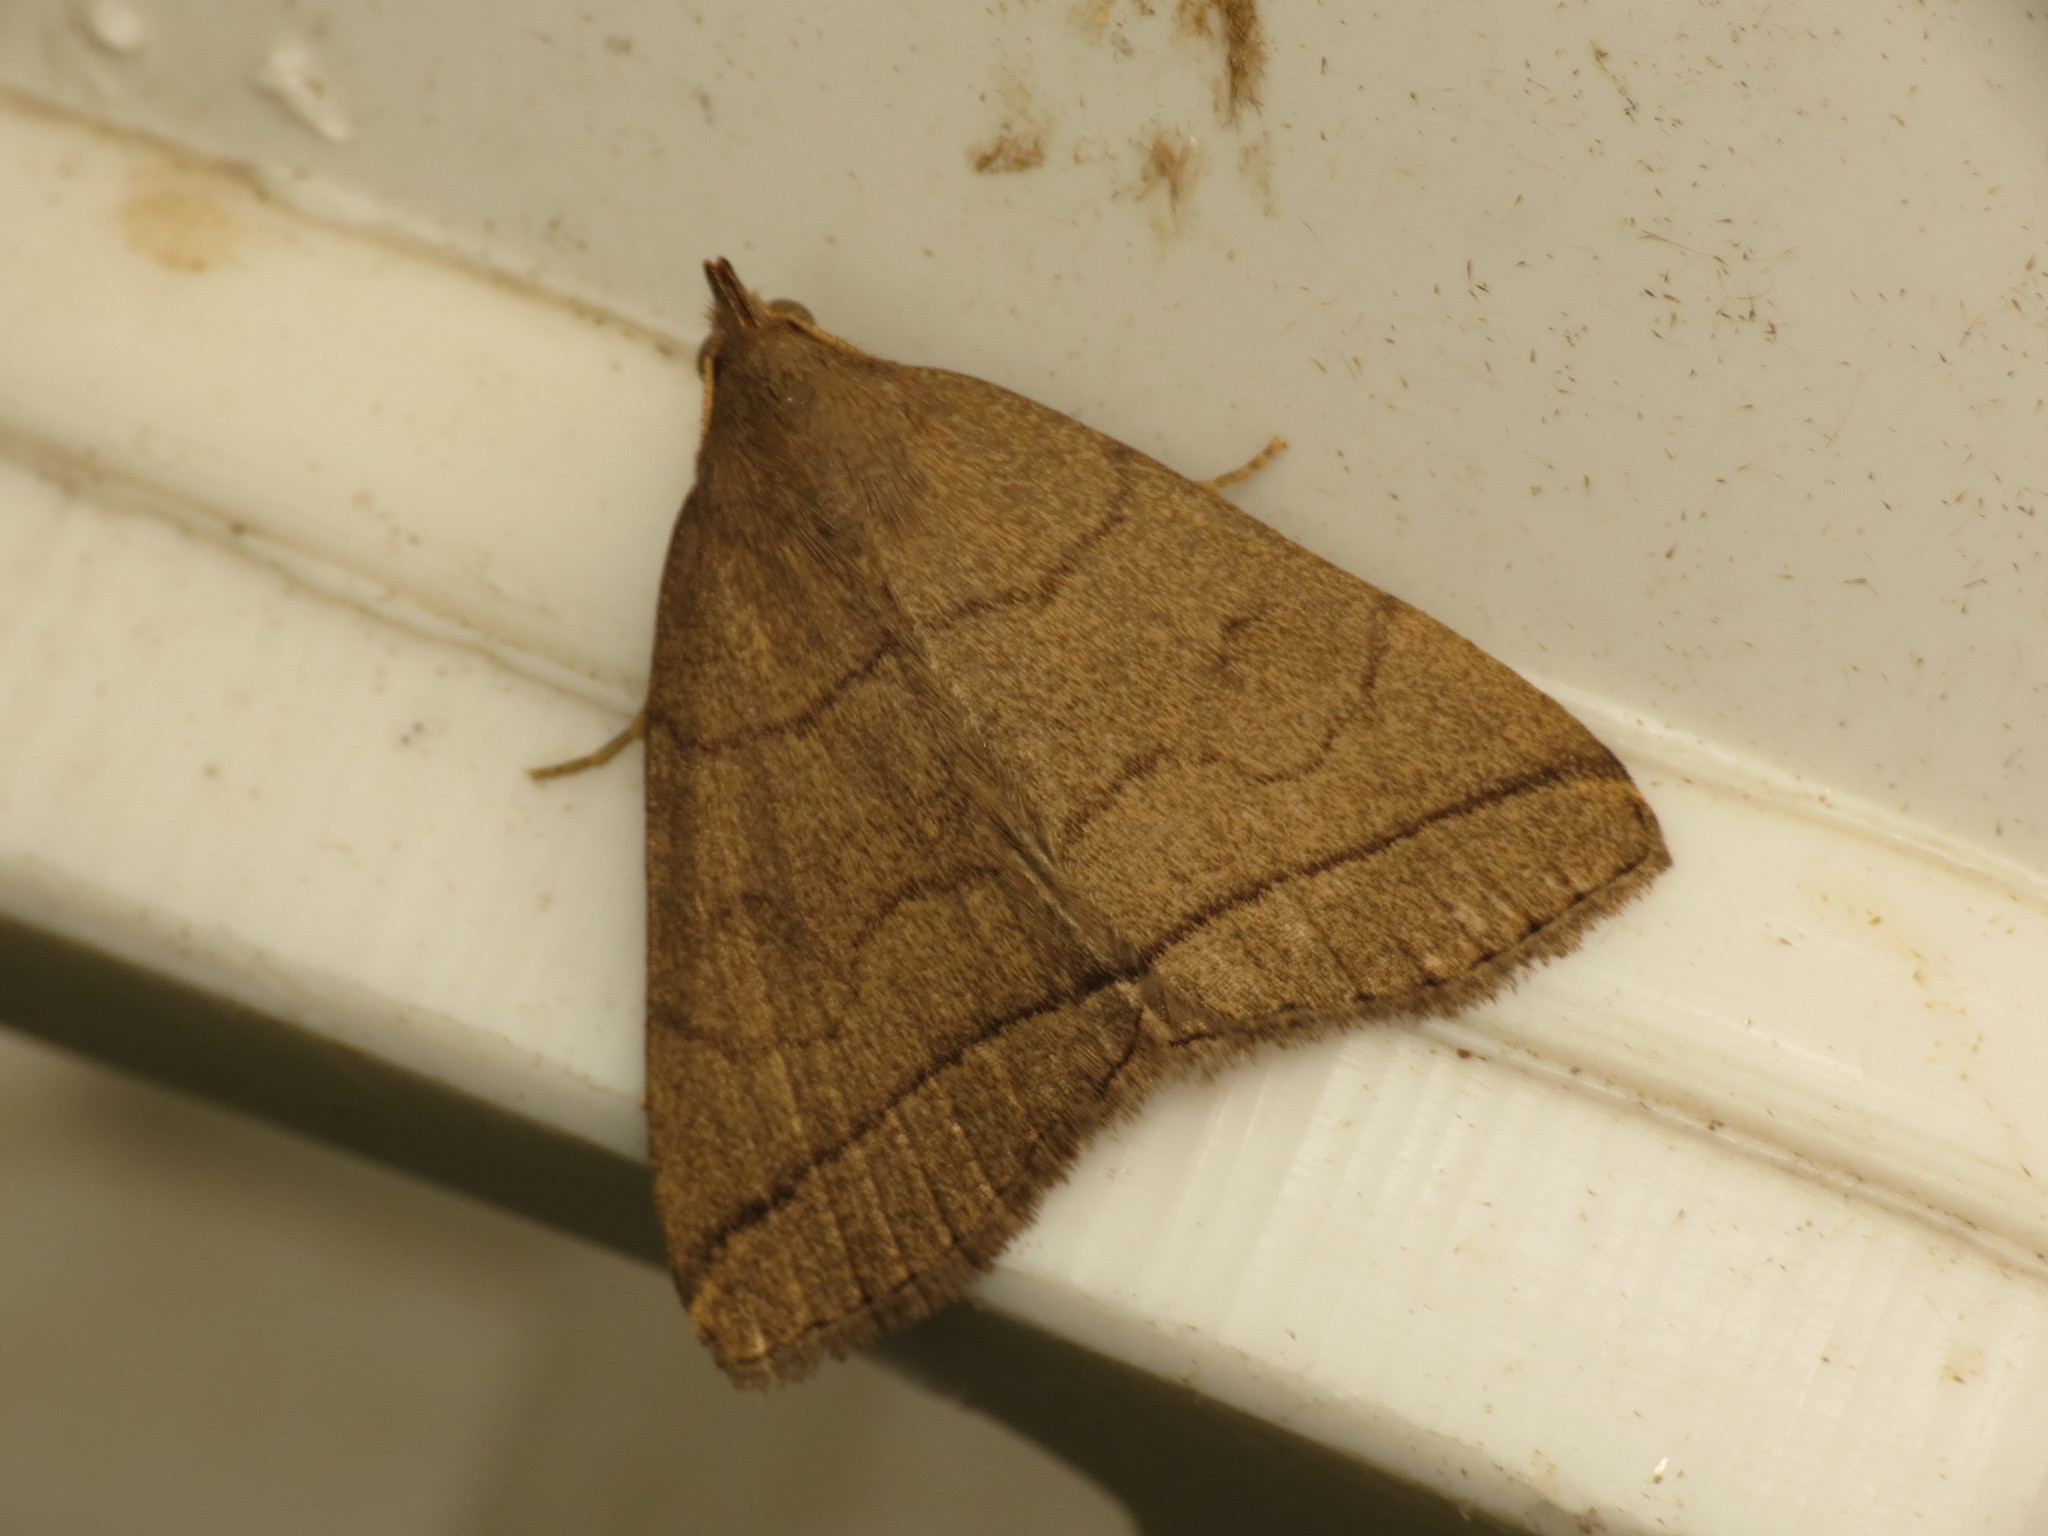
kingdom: Animalia
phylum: Arthropoda
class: Insecta
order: Lepidoptera
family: Erebidae
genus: Herminia
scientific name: Herminia tarsipennalis
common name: Fan-foot
